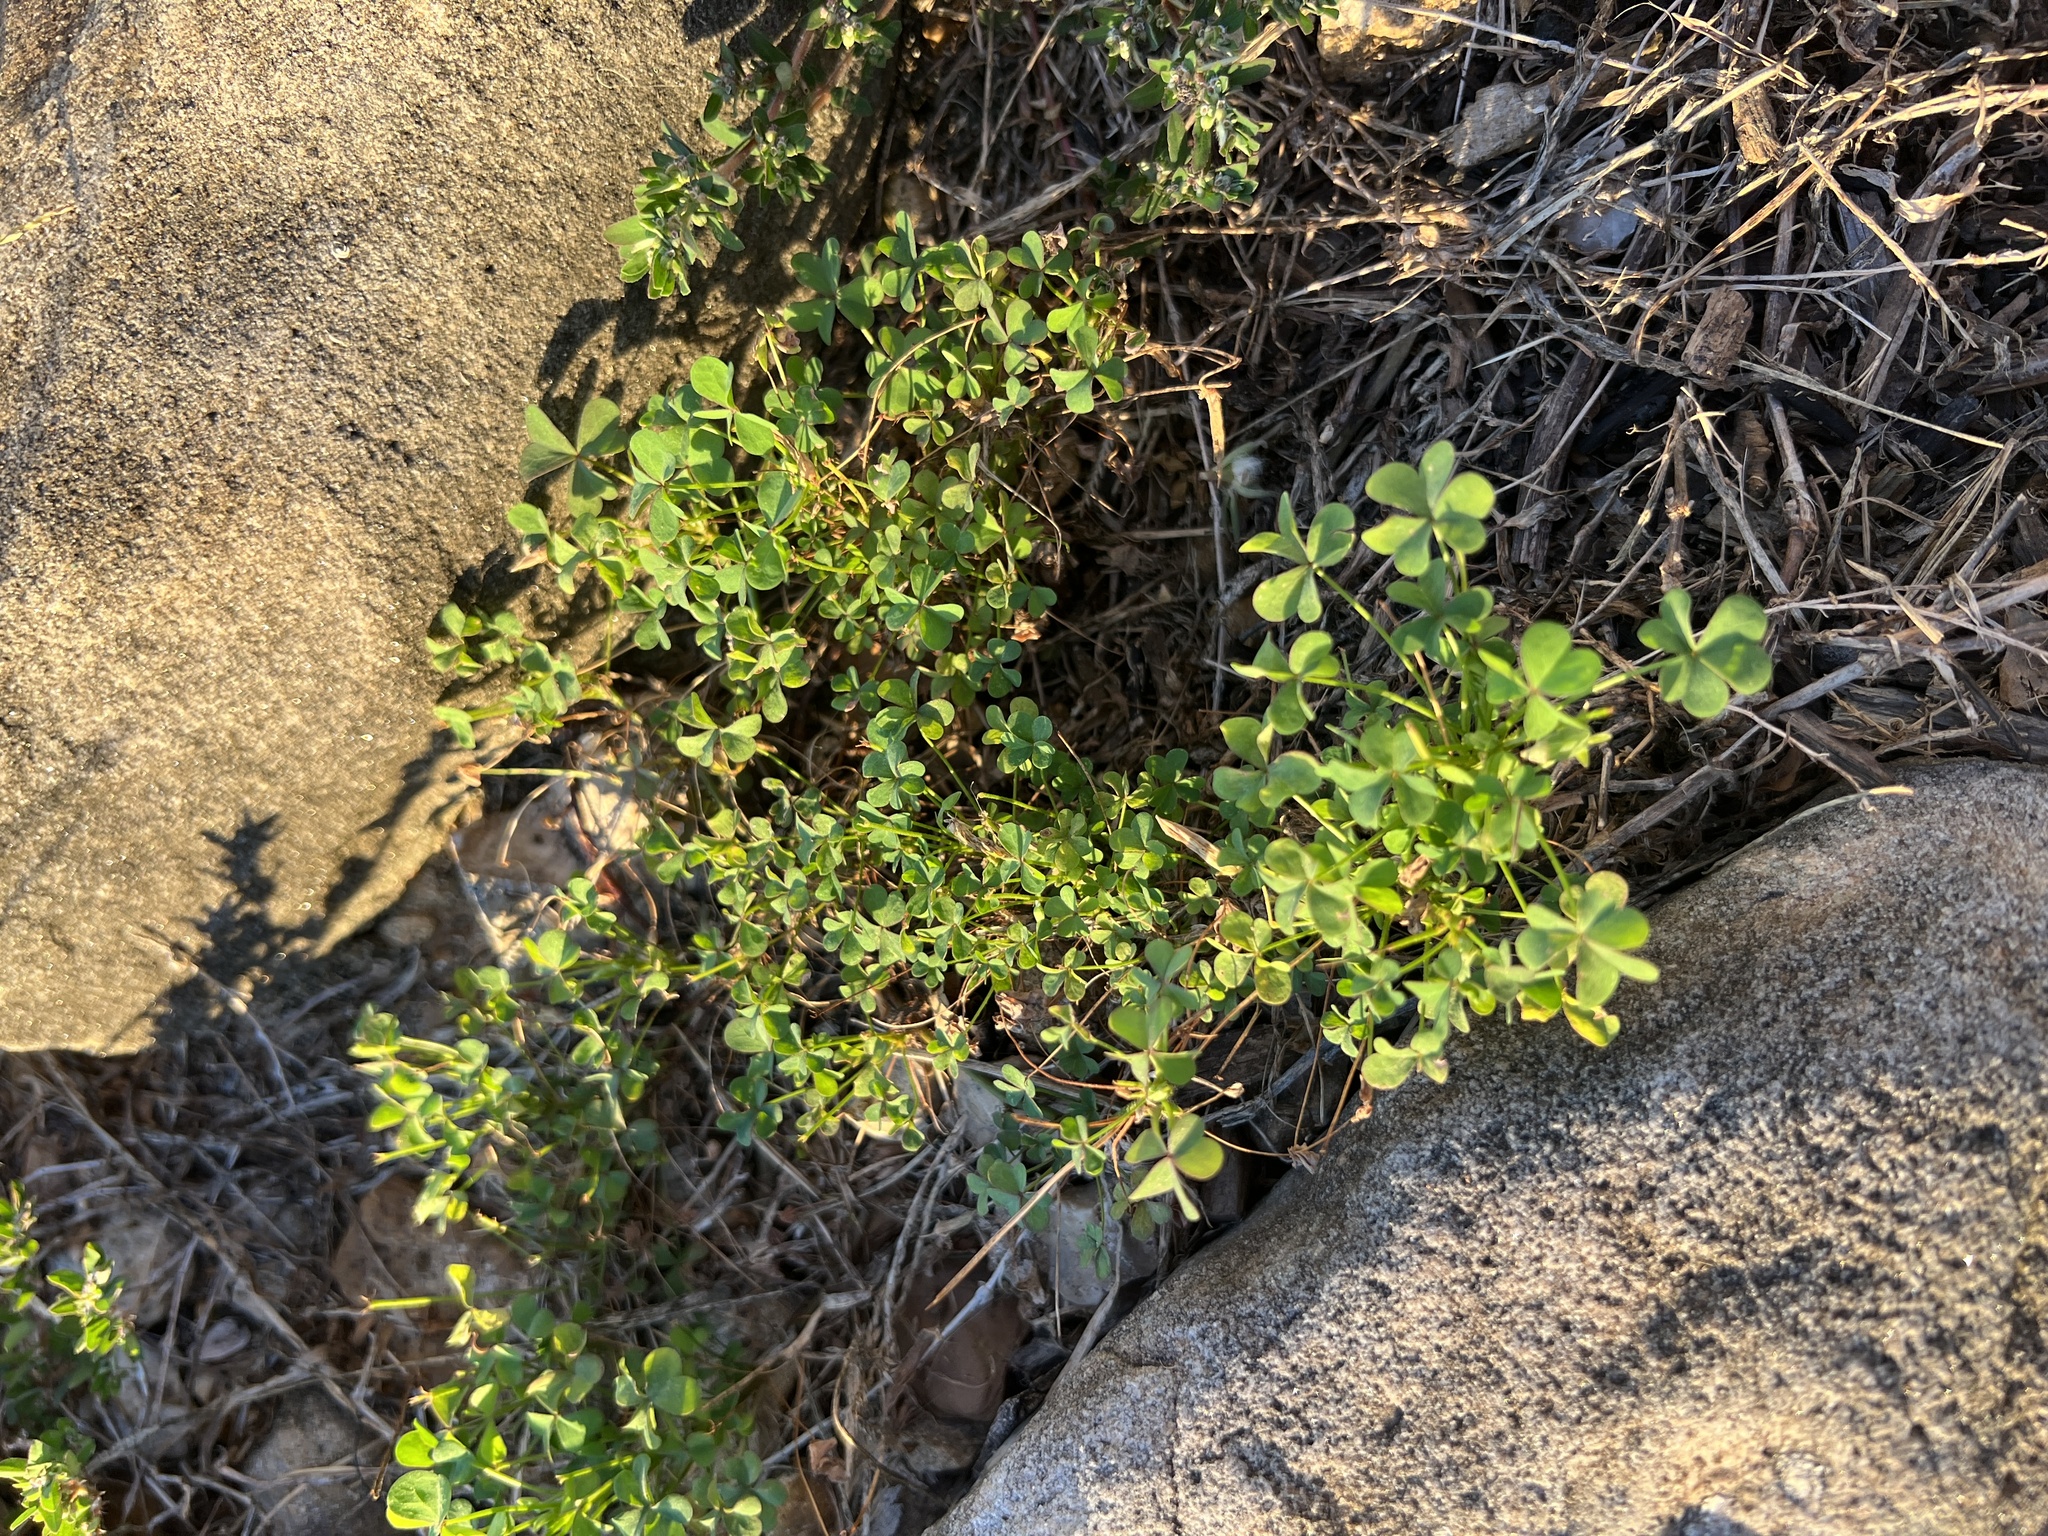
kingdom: Plantae
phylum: Tracheophyta
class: Magnoliopsida
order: Oxalidales
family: Oxalidaceae
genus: Oxalis
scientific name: Oxalis dillenii
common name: Sussex yellow-sorrel
